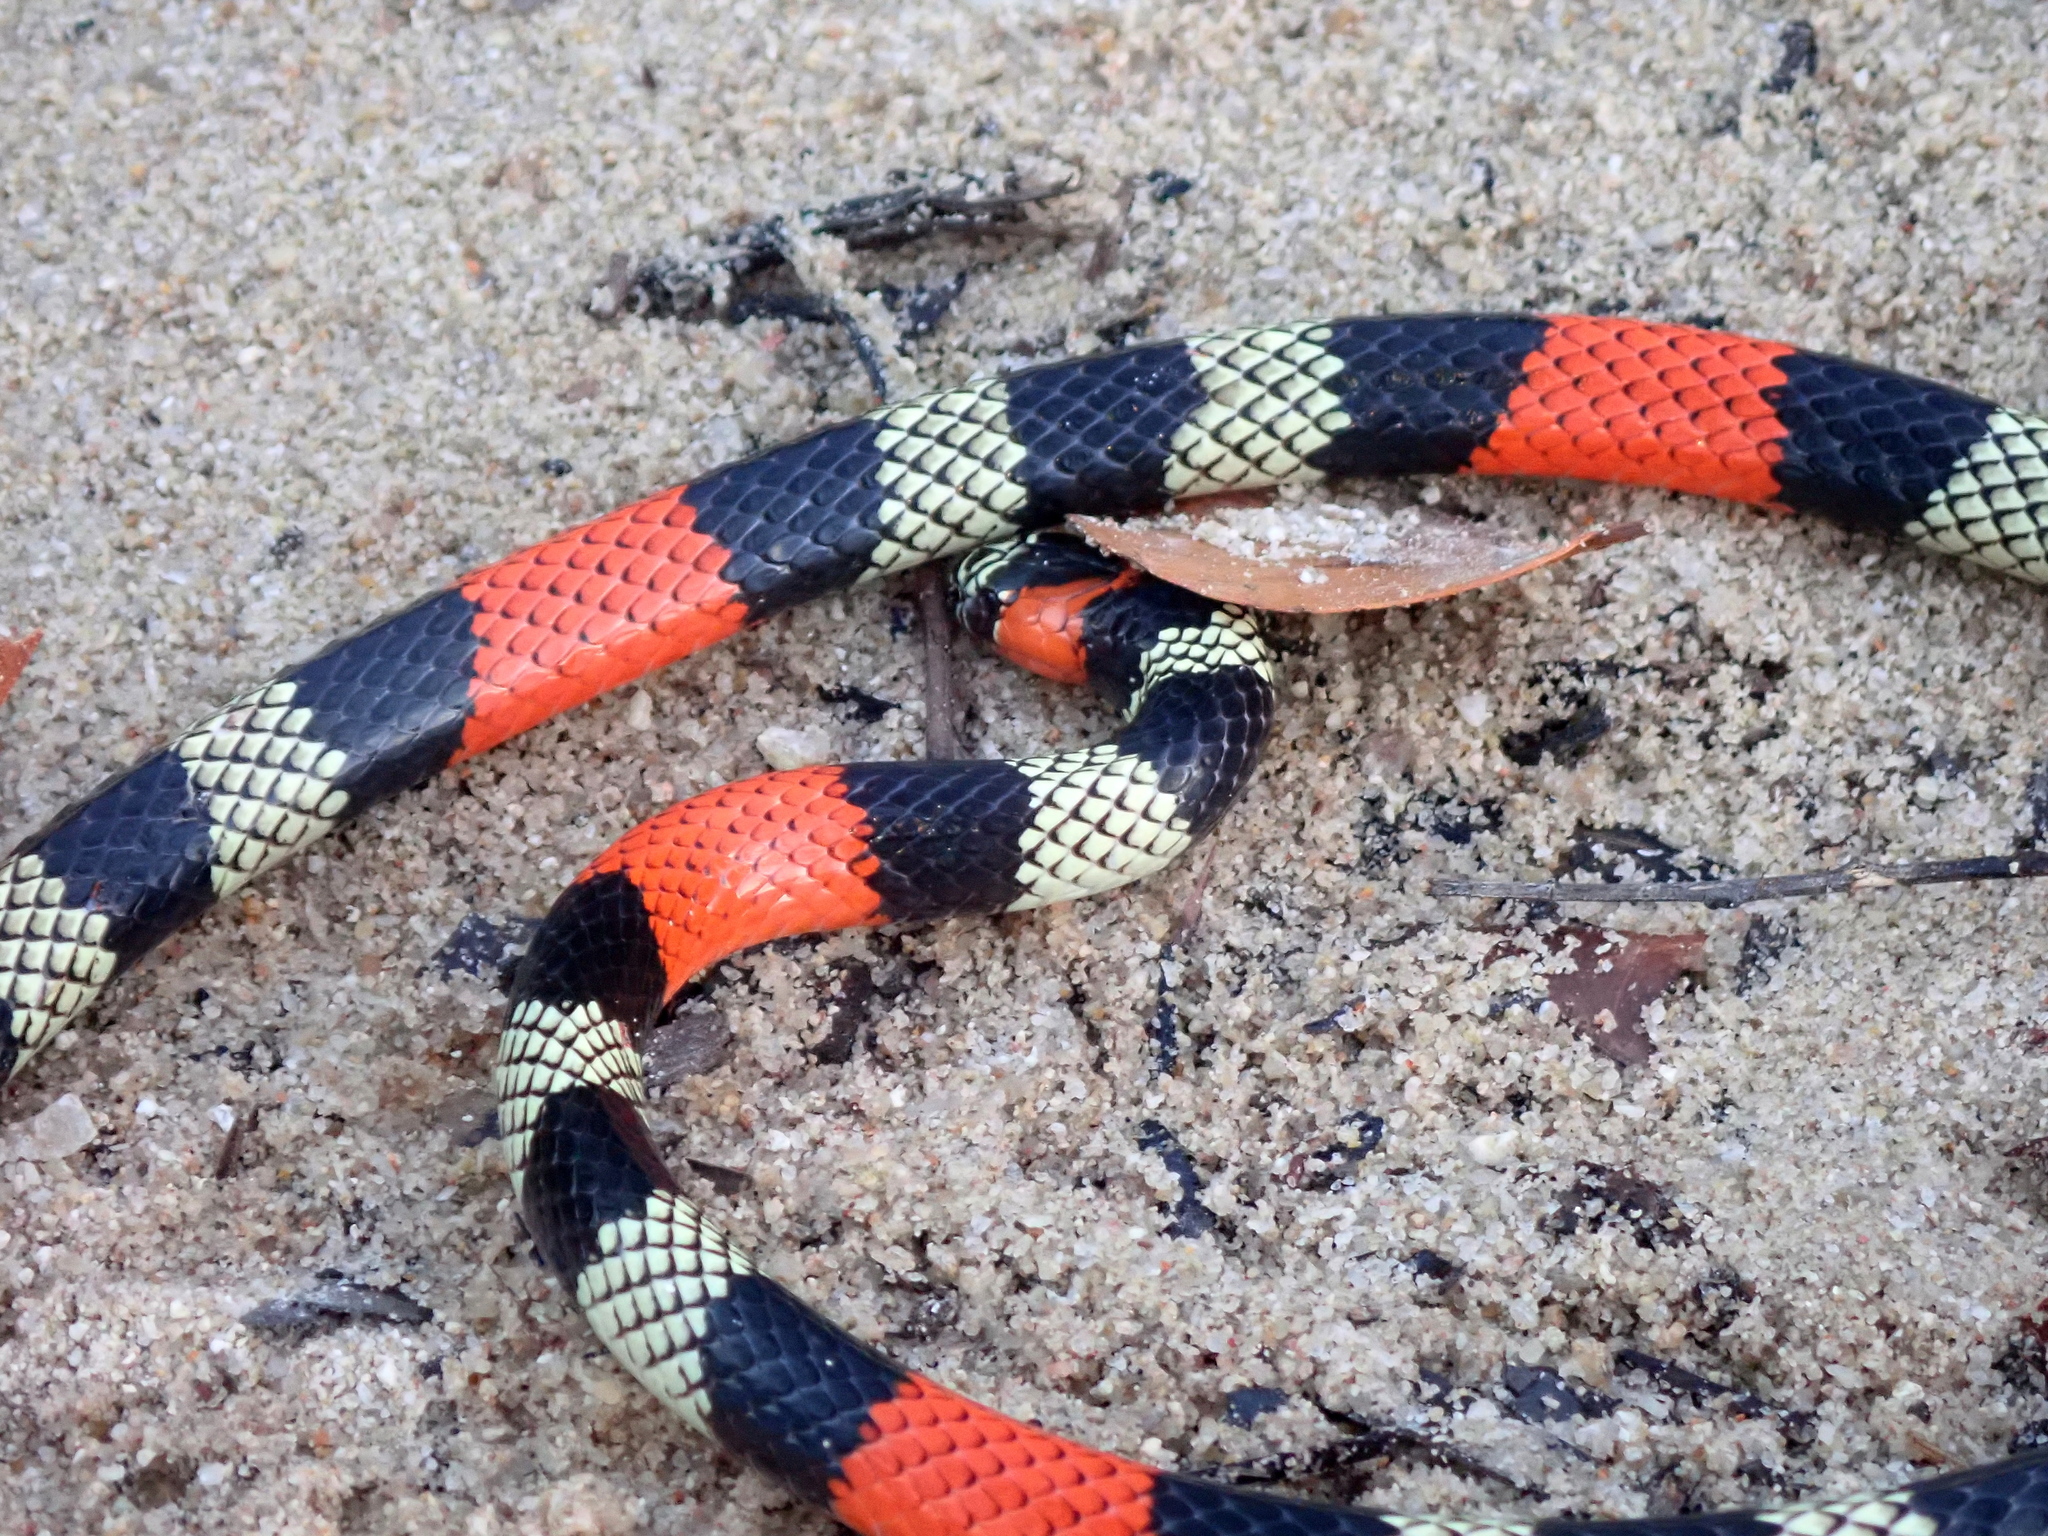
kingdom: Animalia
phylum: Chordata
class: Squamata
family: Elapidae
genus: Micrurus
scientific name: Micrurus brasiliensis
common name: Brazilian short-tailed coral snake
